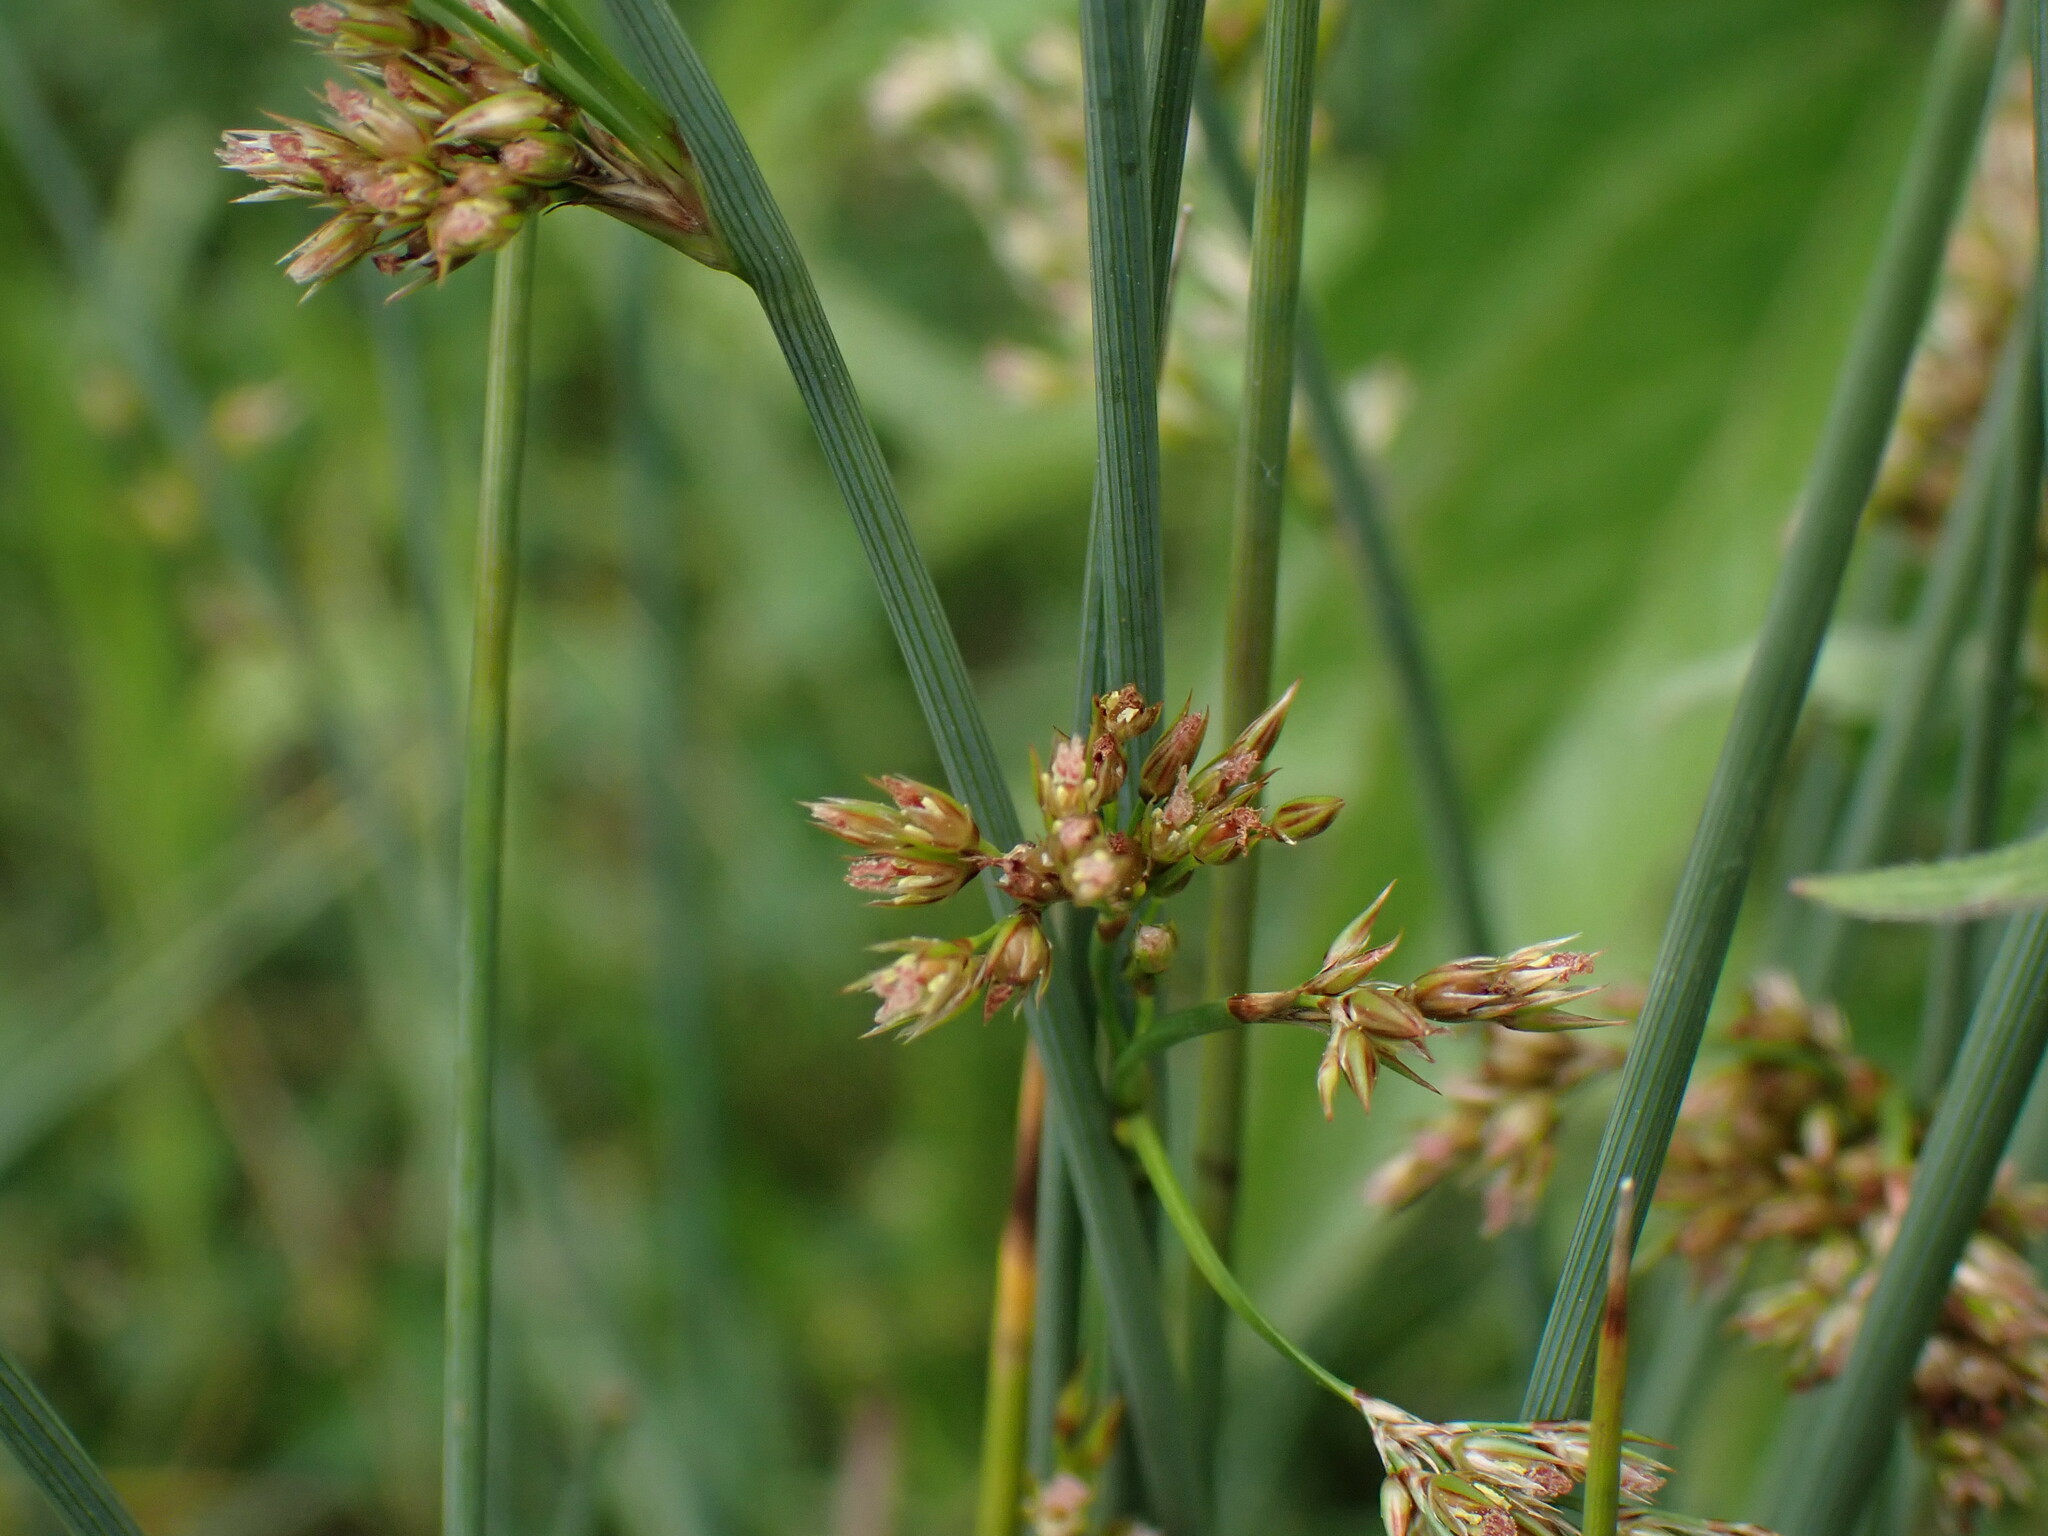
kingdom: Plantae
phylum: Tracheophyta
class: Liliopsida
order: Poales
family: Juncaceae
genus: Juncus
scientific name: Juncus inflexus
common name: Hard rush
